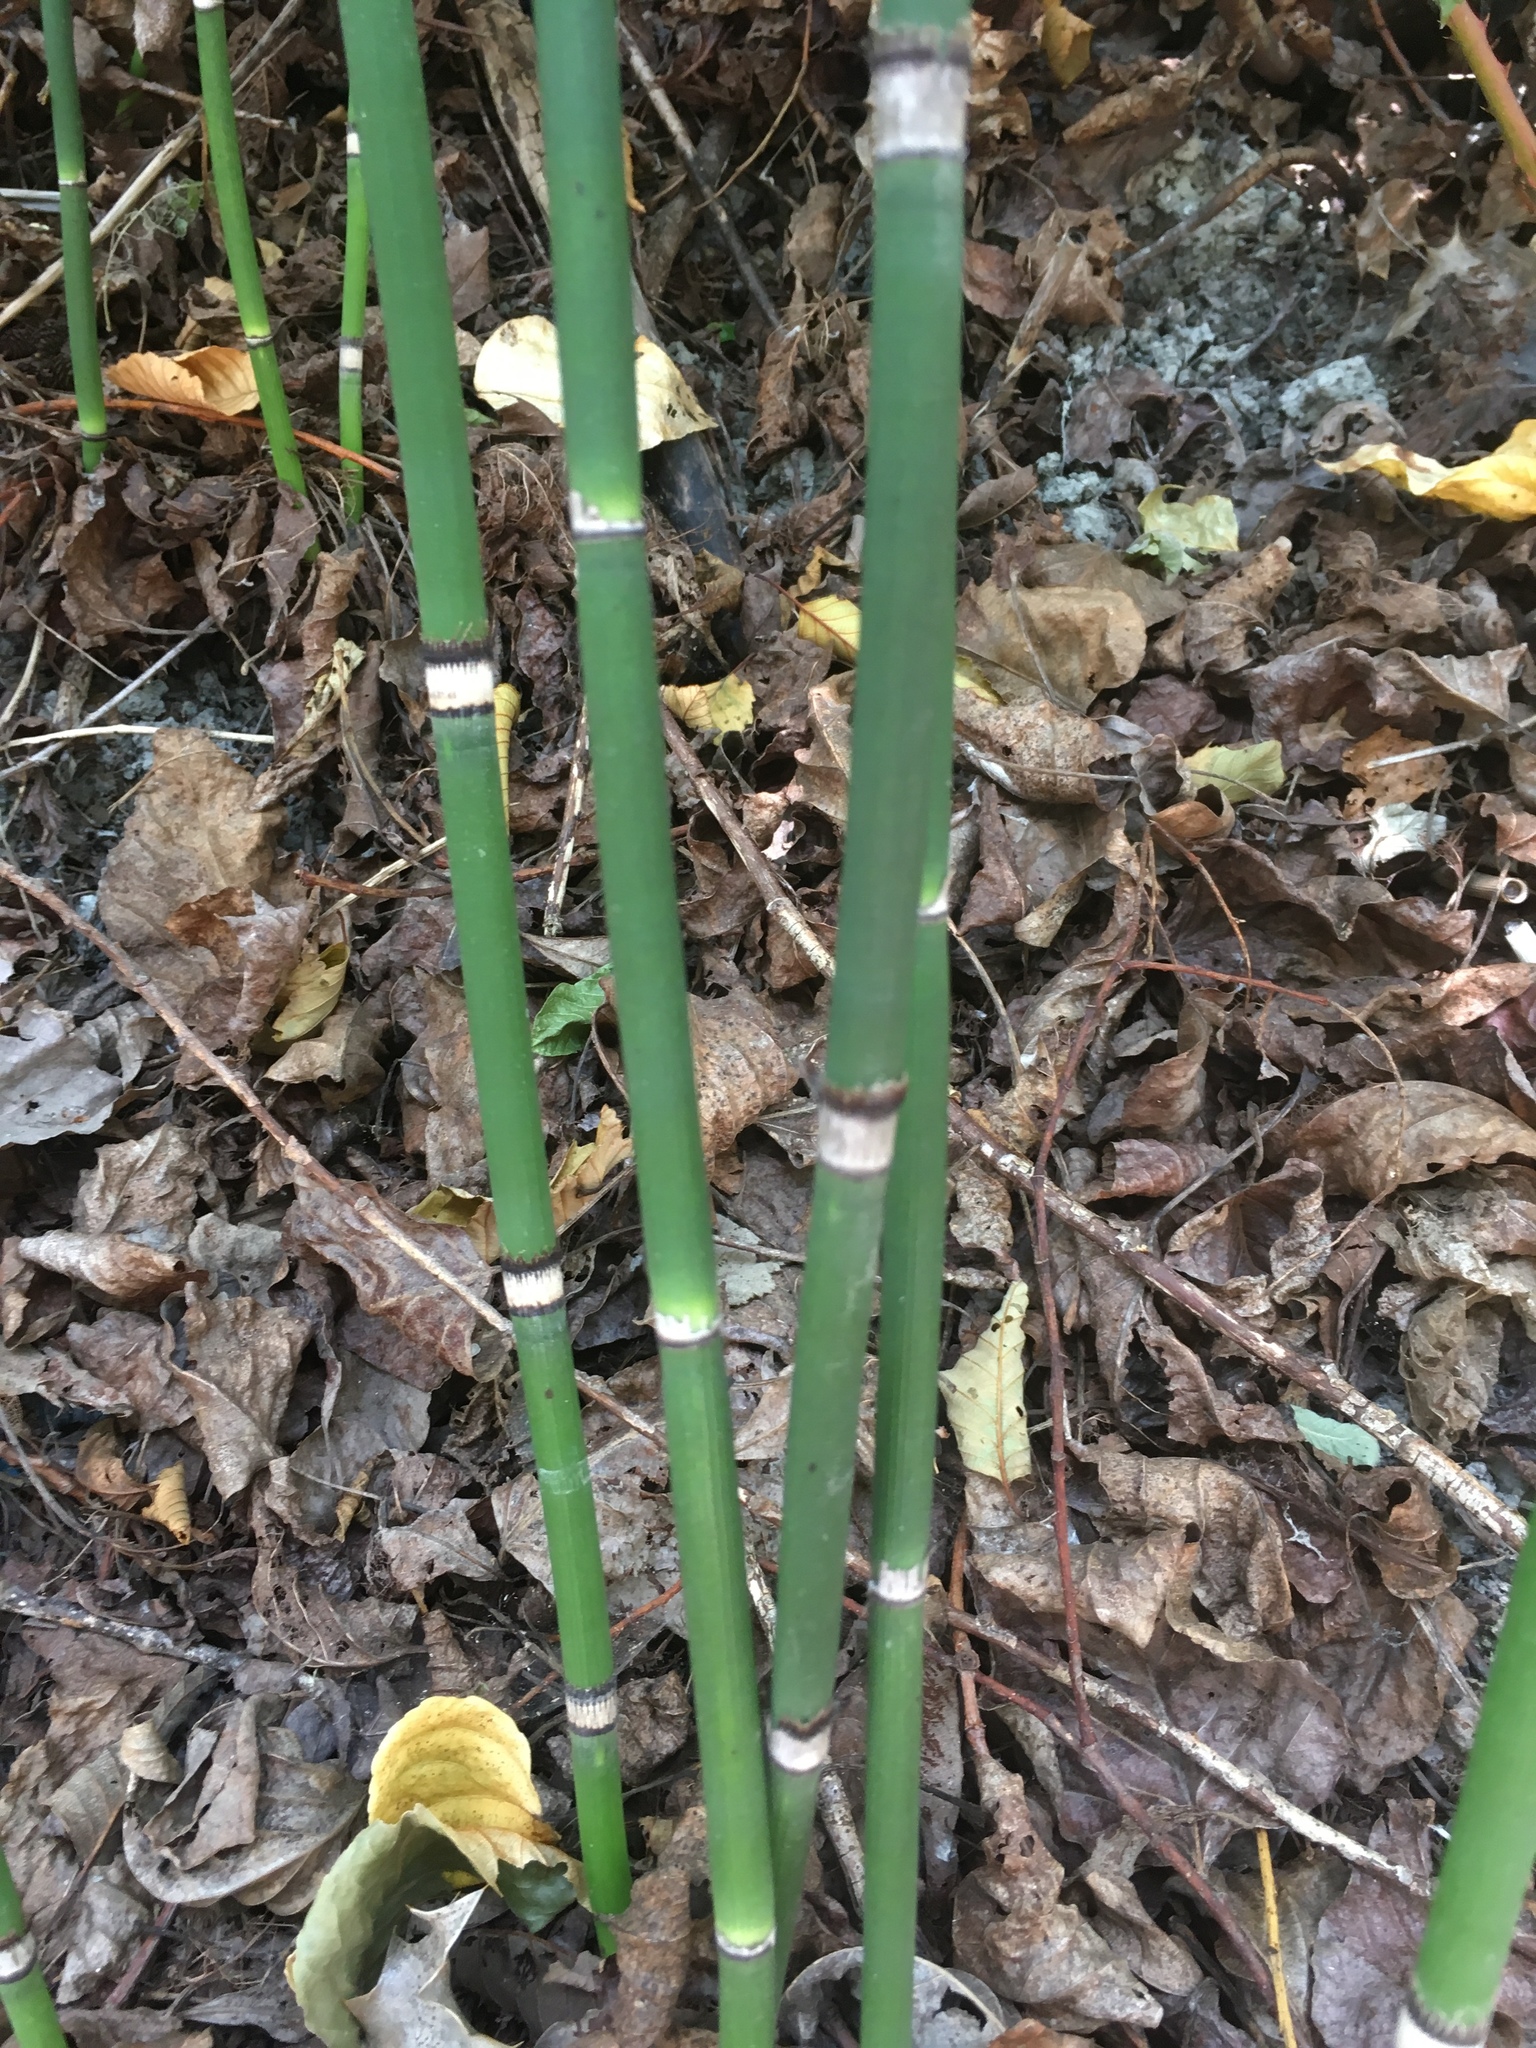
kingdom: Plantae
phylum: Tracheophyta
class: Polypodiopsida
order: Equisetales
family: Equisetaceae
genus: Equisetum
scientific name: Equisetum hyemale
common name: Rough horsetail
